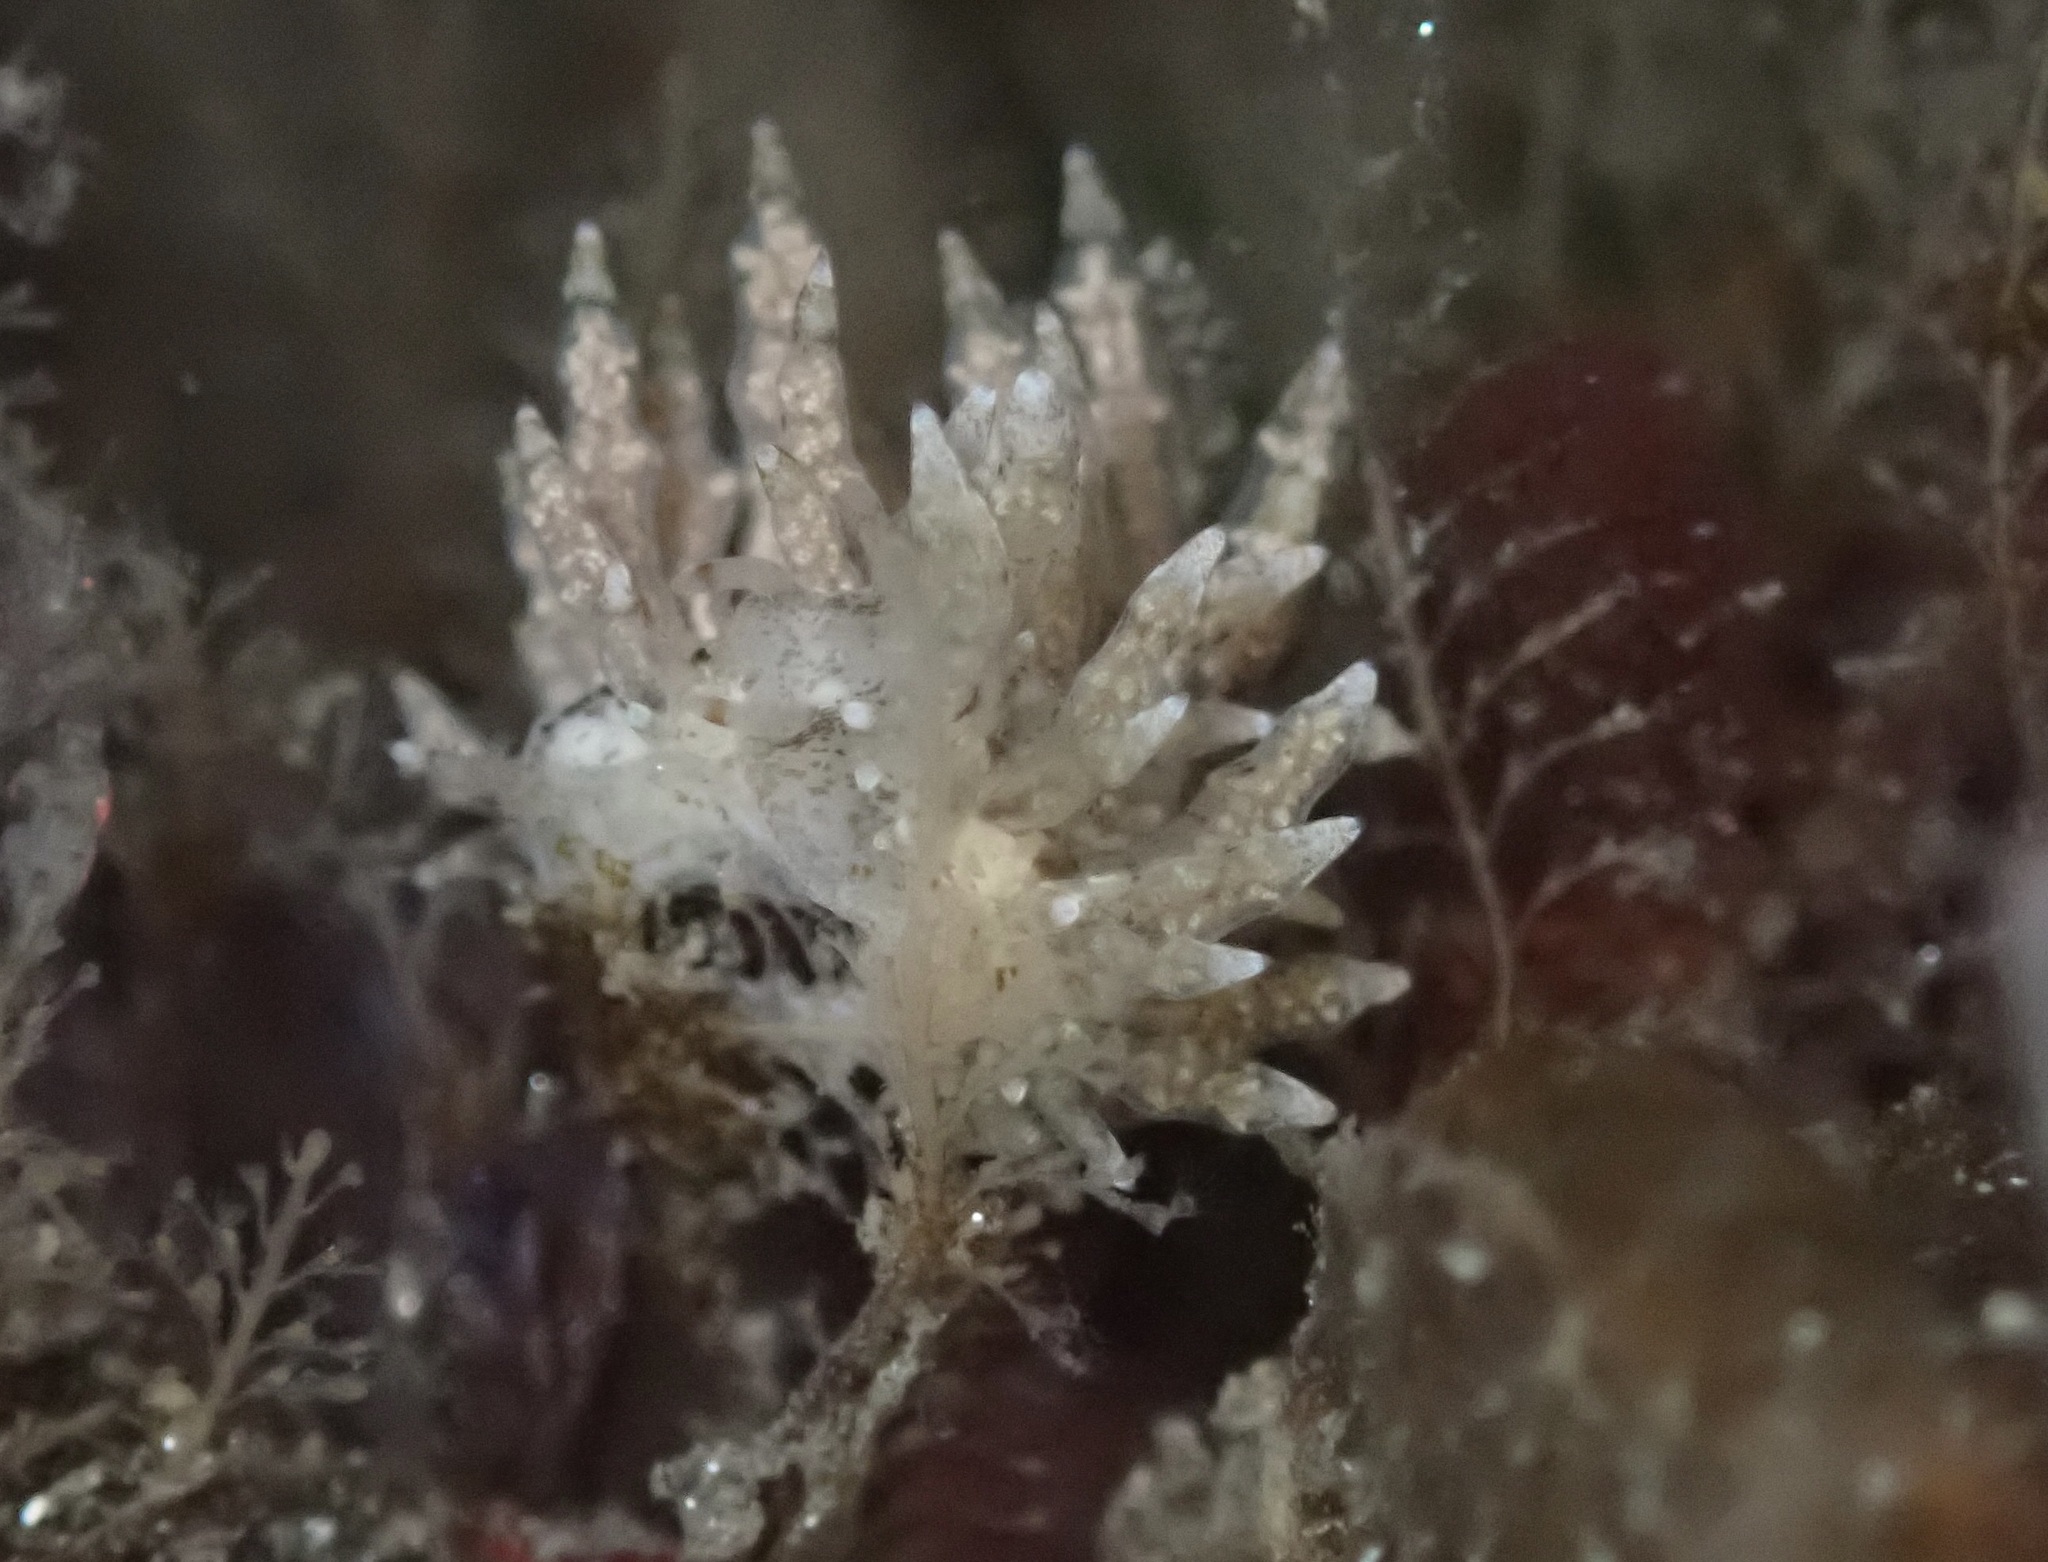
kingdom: Animalia
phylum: Mollusca
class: Gastropoda
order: Nudibranchia
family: Eubranchidae
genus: Eubranchus
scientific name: Eubranchus rustyus
